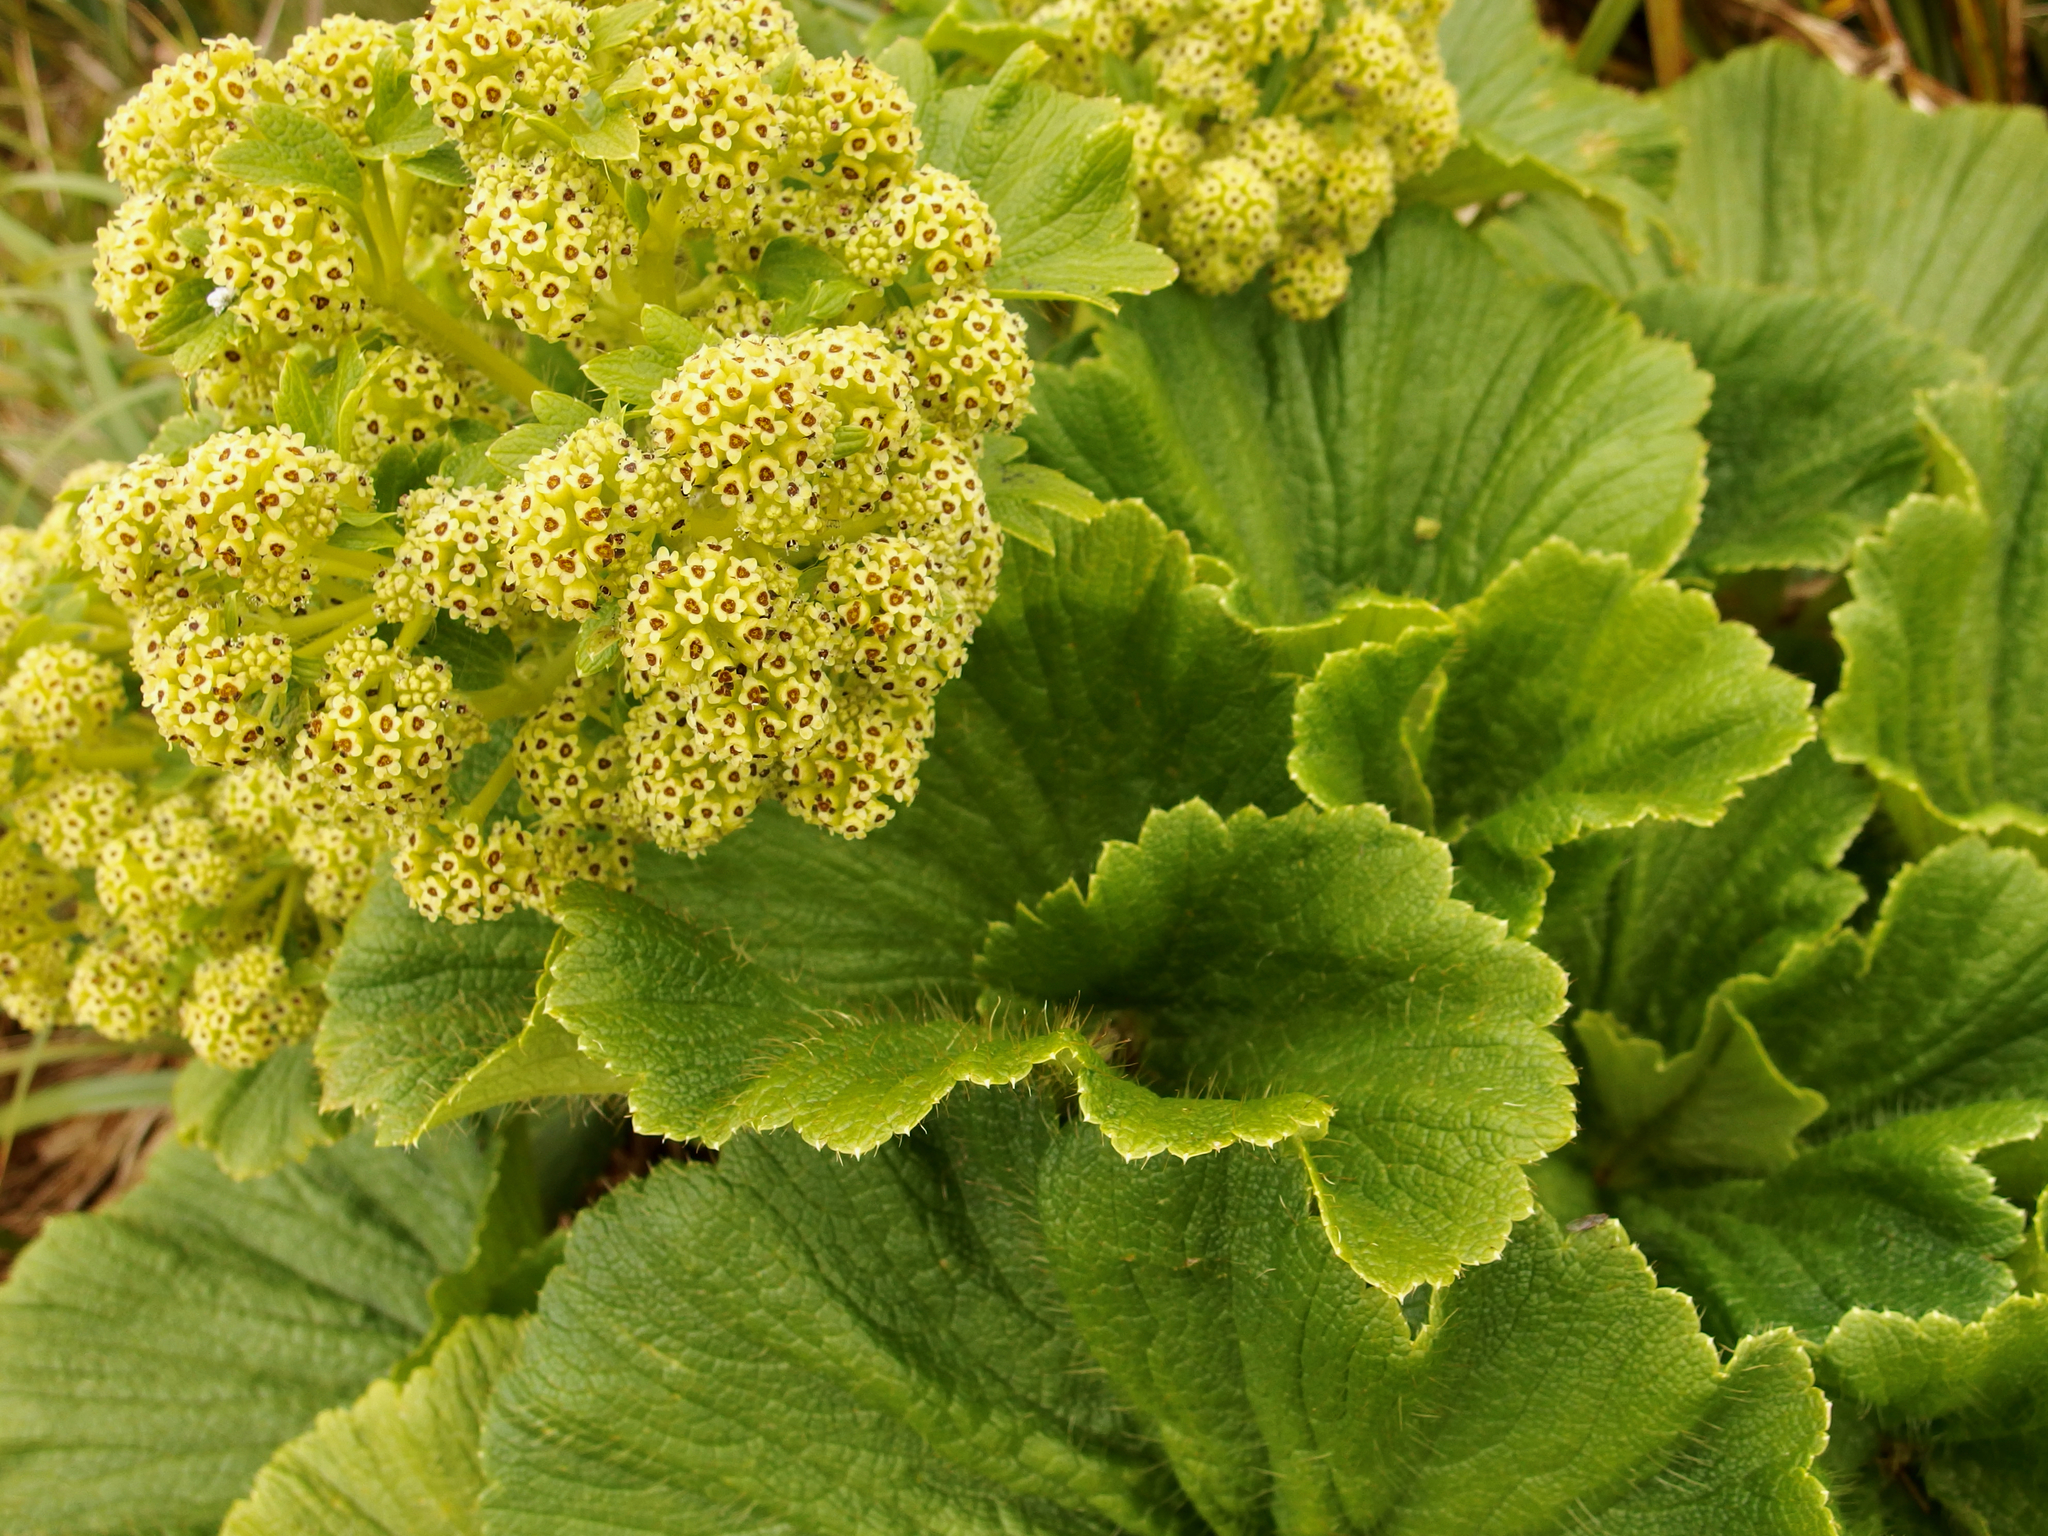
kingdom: Plantae
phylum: Tracheophyta
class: Magnoliopsida
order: Apiales
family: Apiaceae
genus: Azorella
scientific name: Azorella polaris
